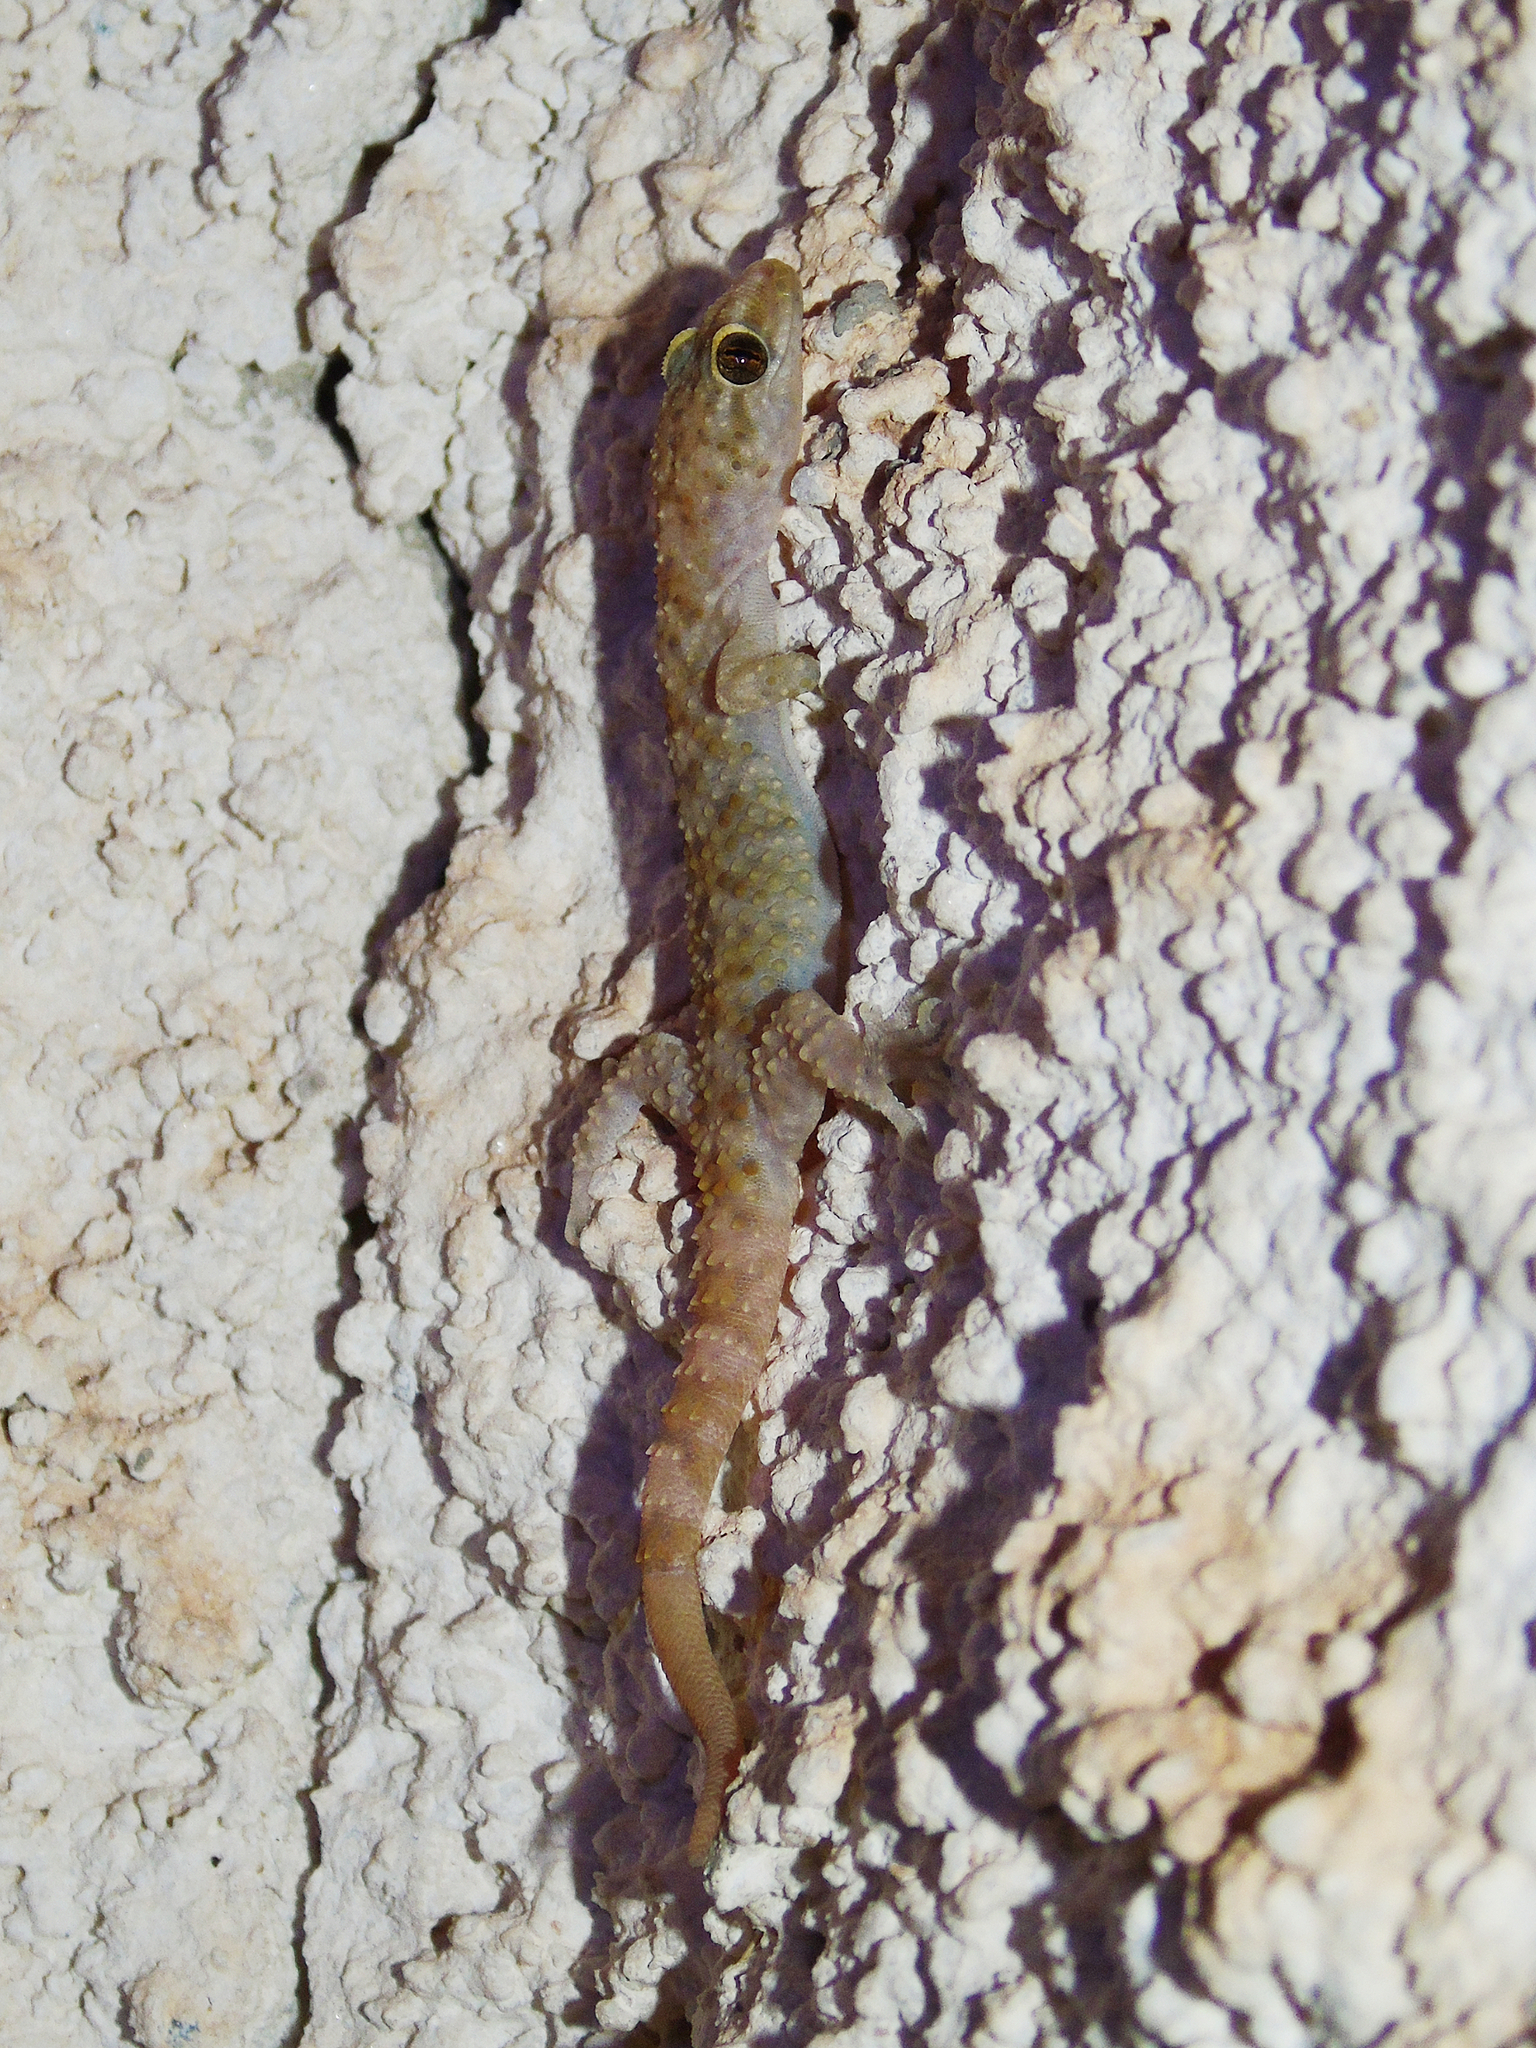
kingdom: Animalia
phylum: Chordata
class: Squamata
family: Gekkonidae
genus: Hemidactylus
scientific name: Hemidactylus turcicus
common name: Turkish gecko
